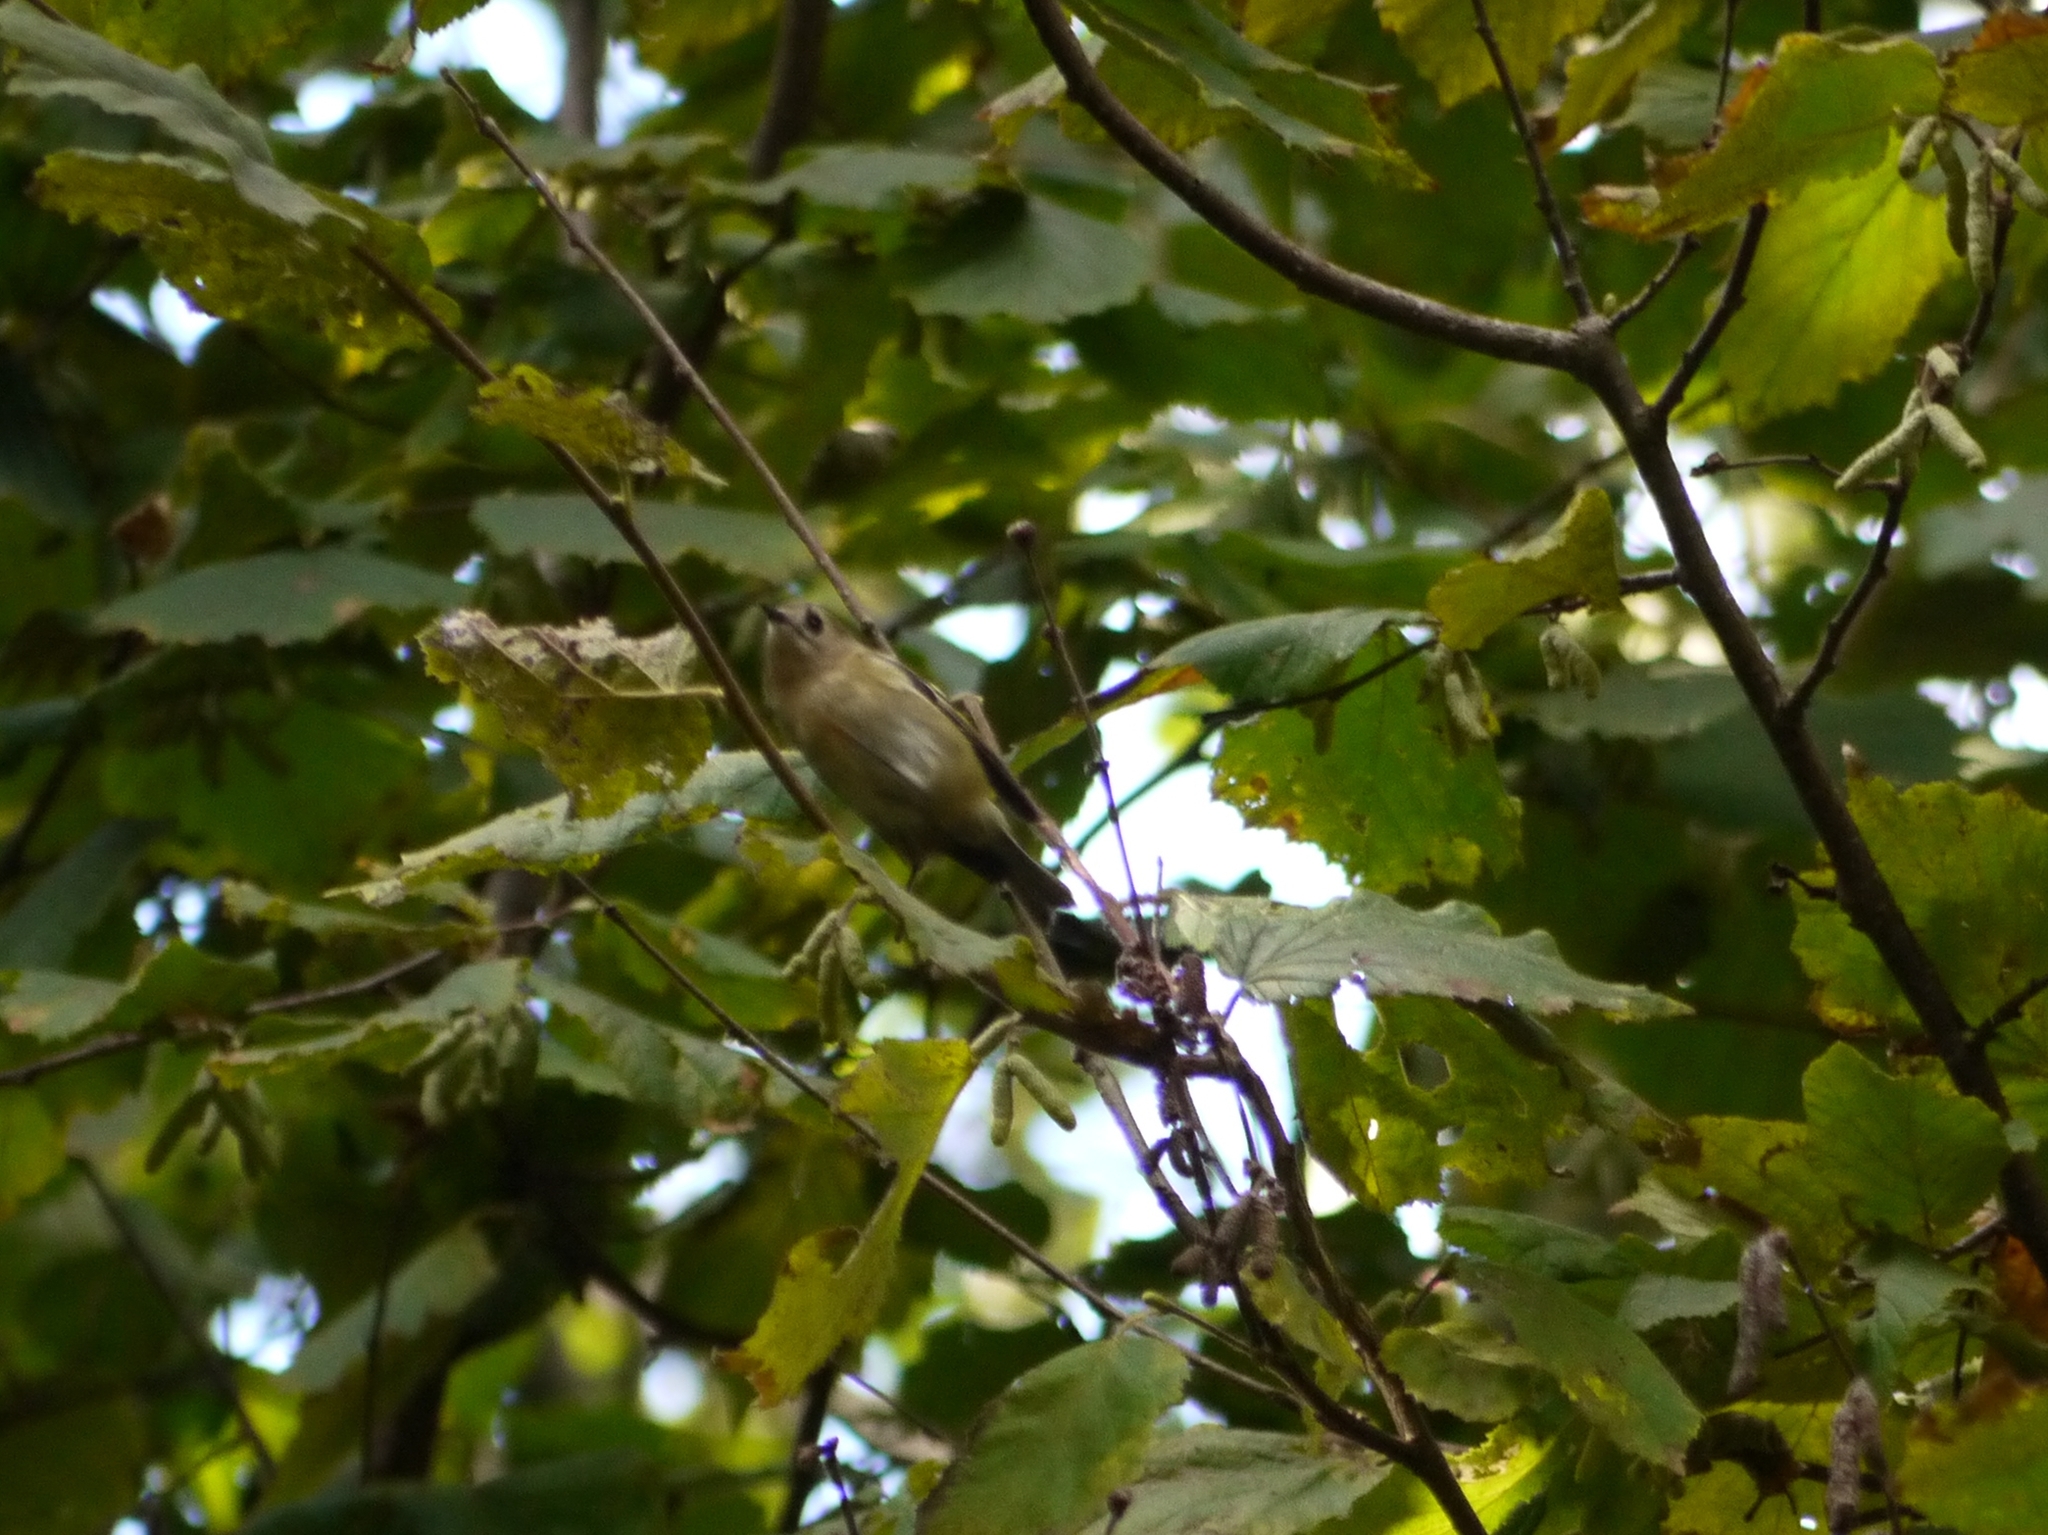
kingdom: Animalia
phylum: Chordata
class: Aves
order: Passeriformes
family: Regulidae
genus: Regulus
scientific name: Regulus regulus
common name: Goldcrest
